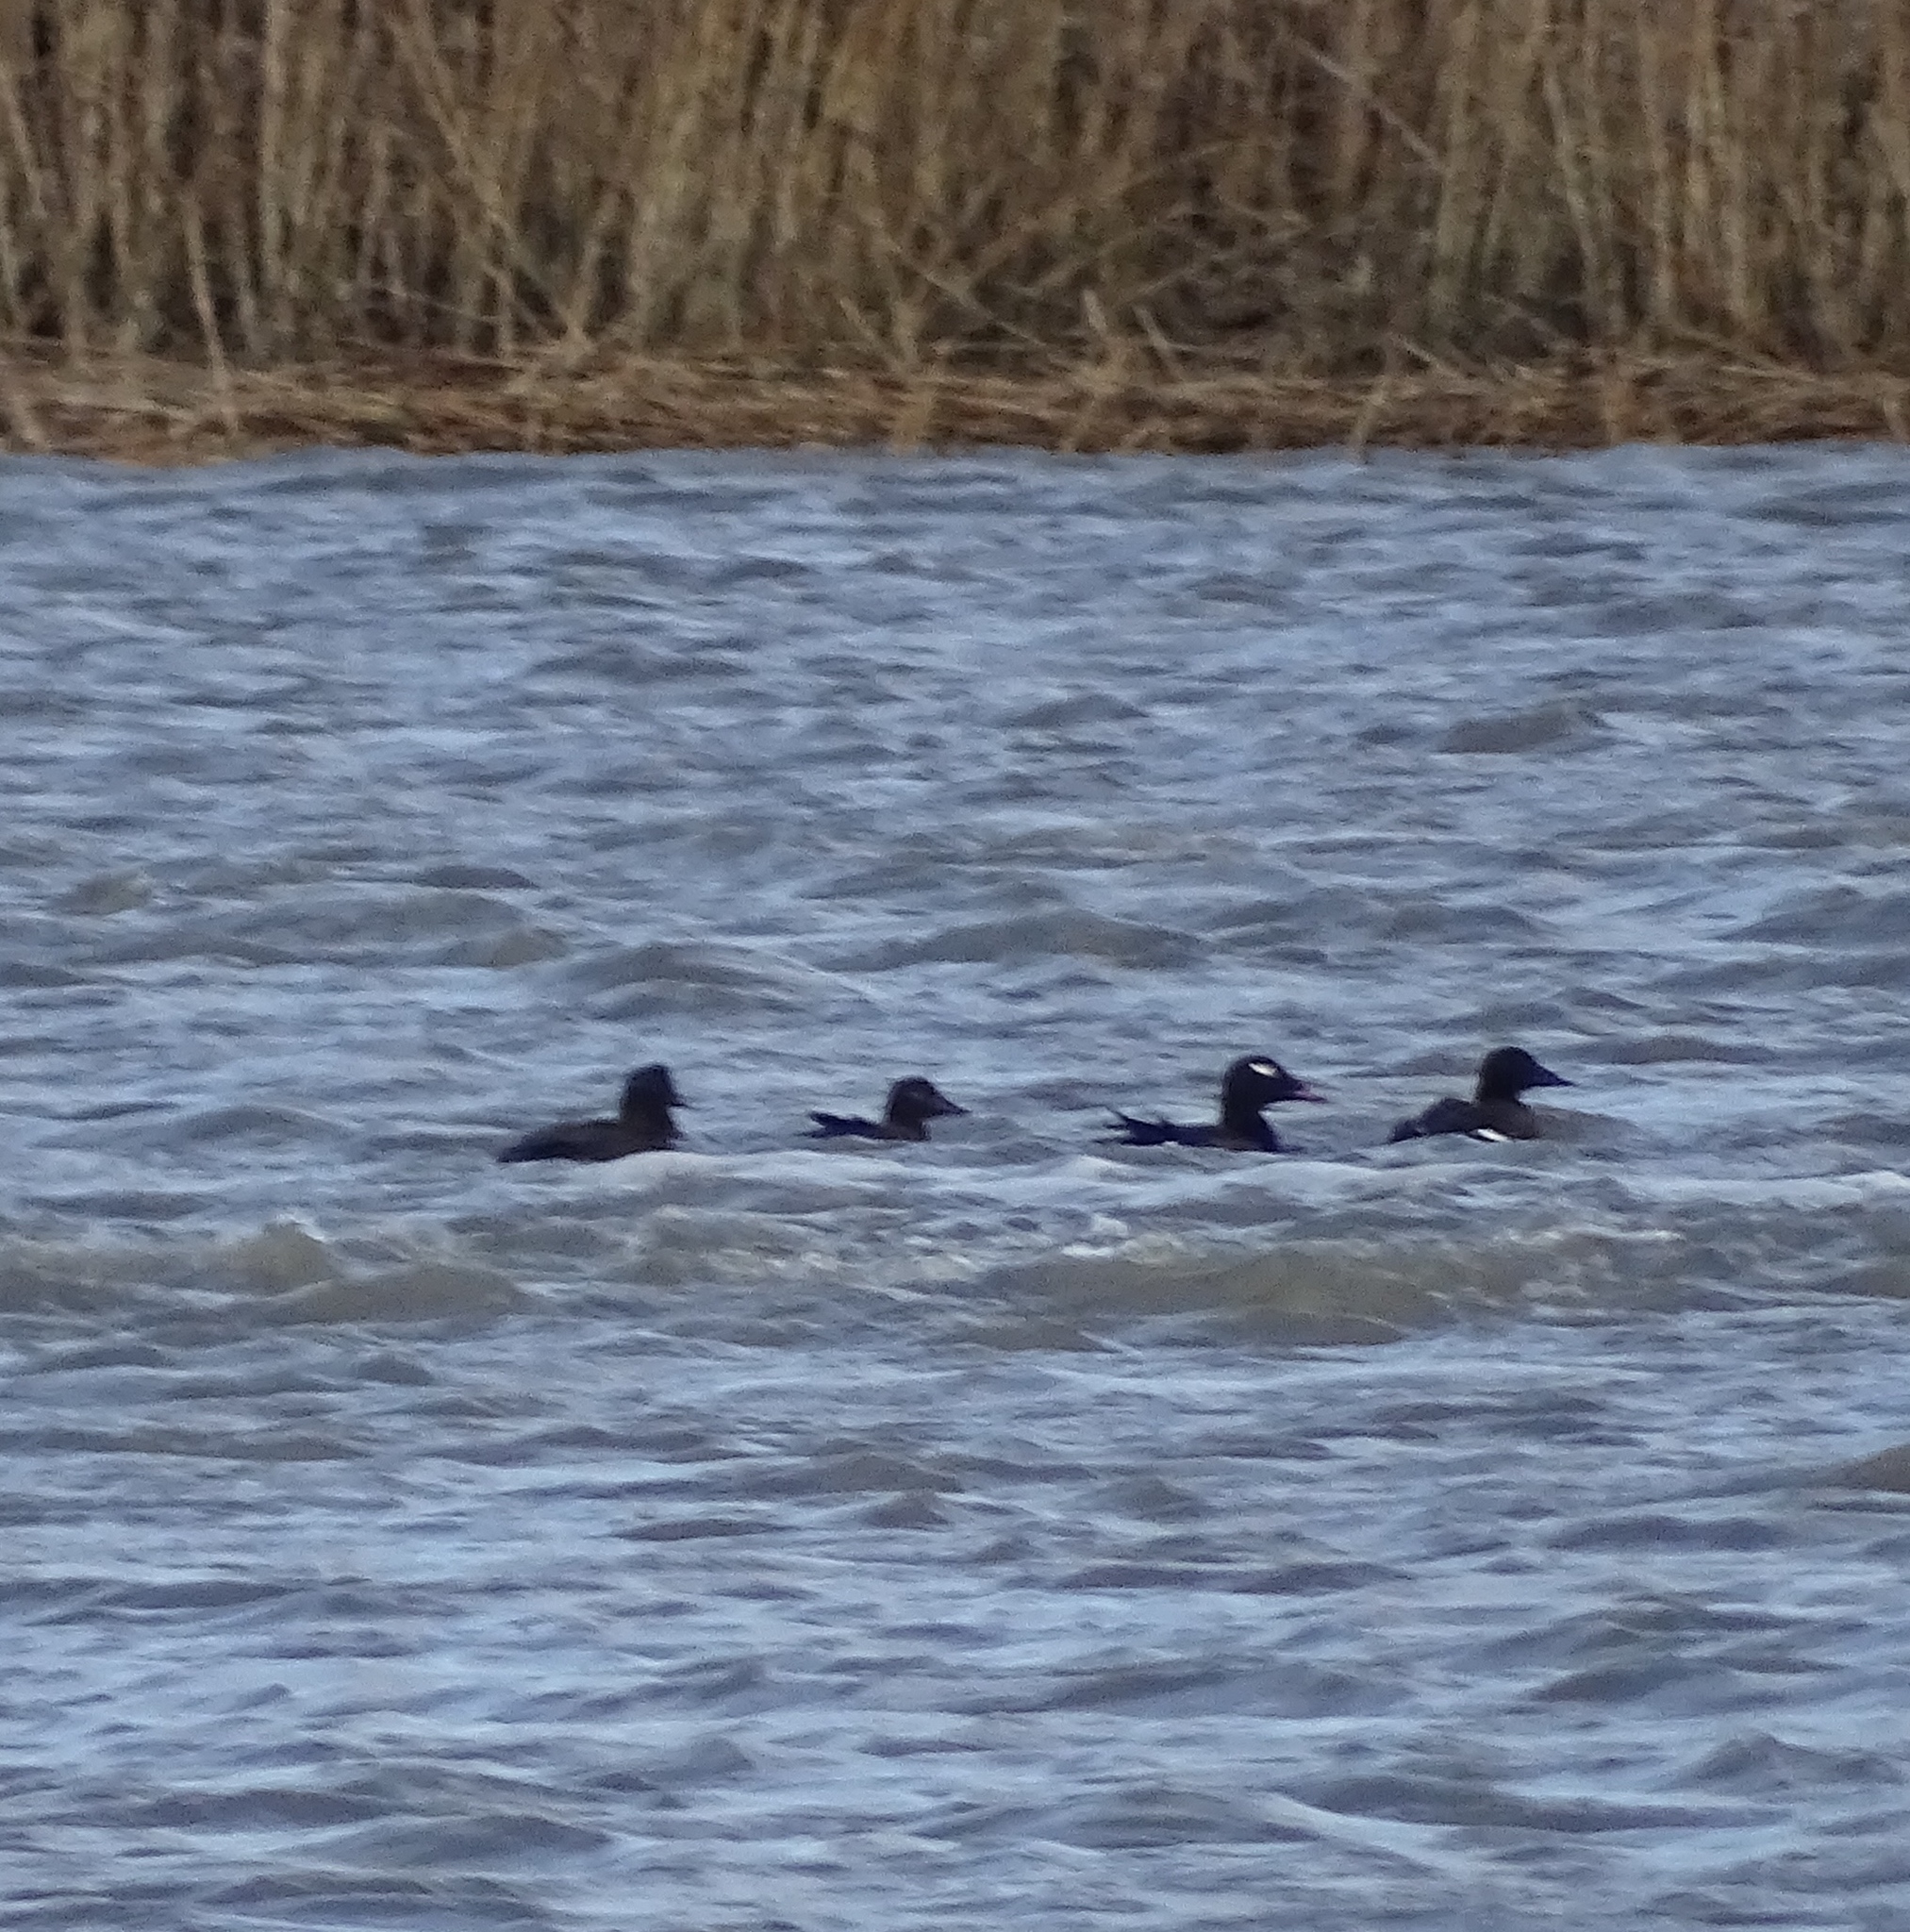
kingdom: Animalia
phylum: Chordata
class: Aves
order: Anseriformes
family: Anatidae
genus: Melanitta
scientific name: Melanitta deglandi
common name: White-winged scoter
